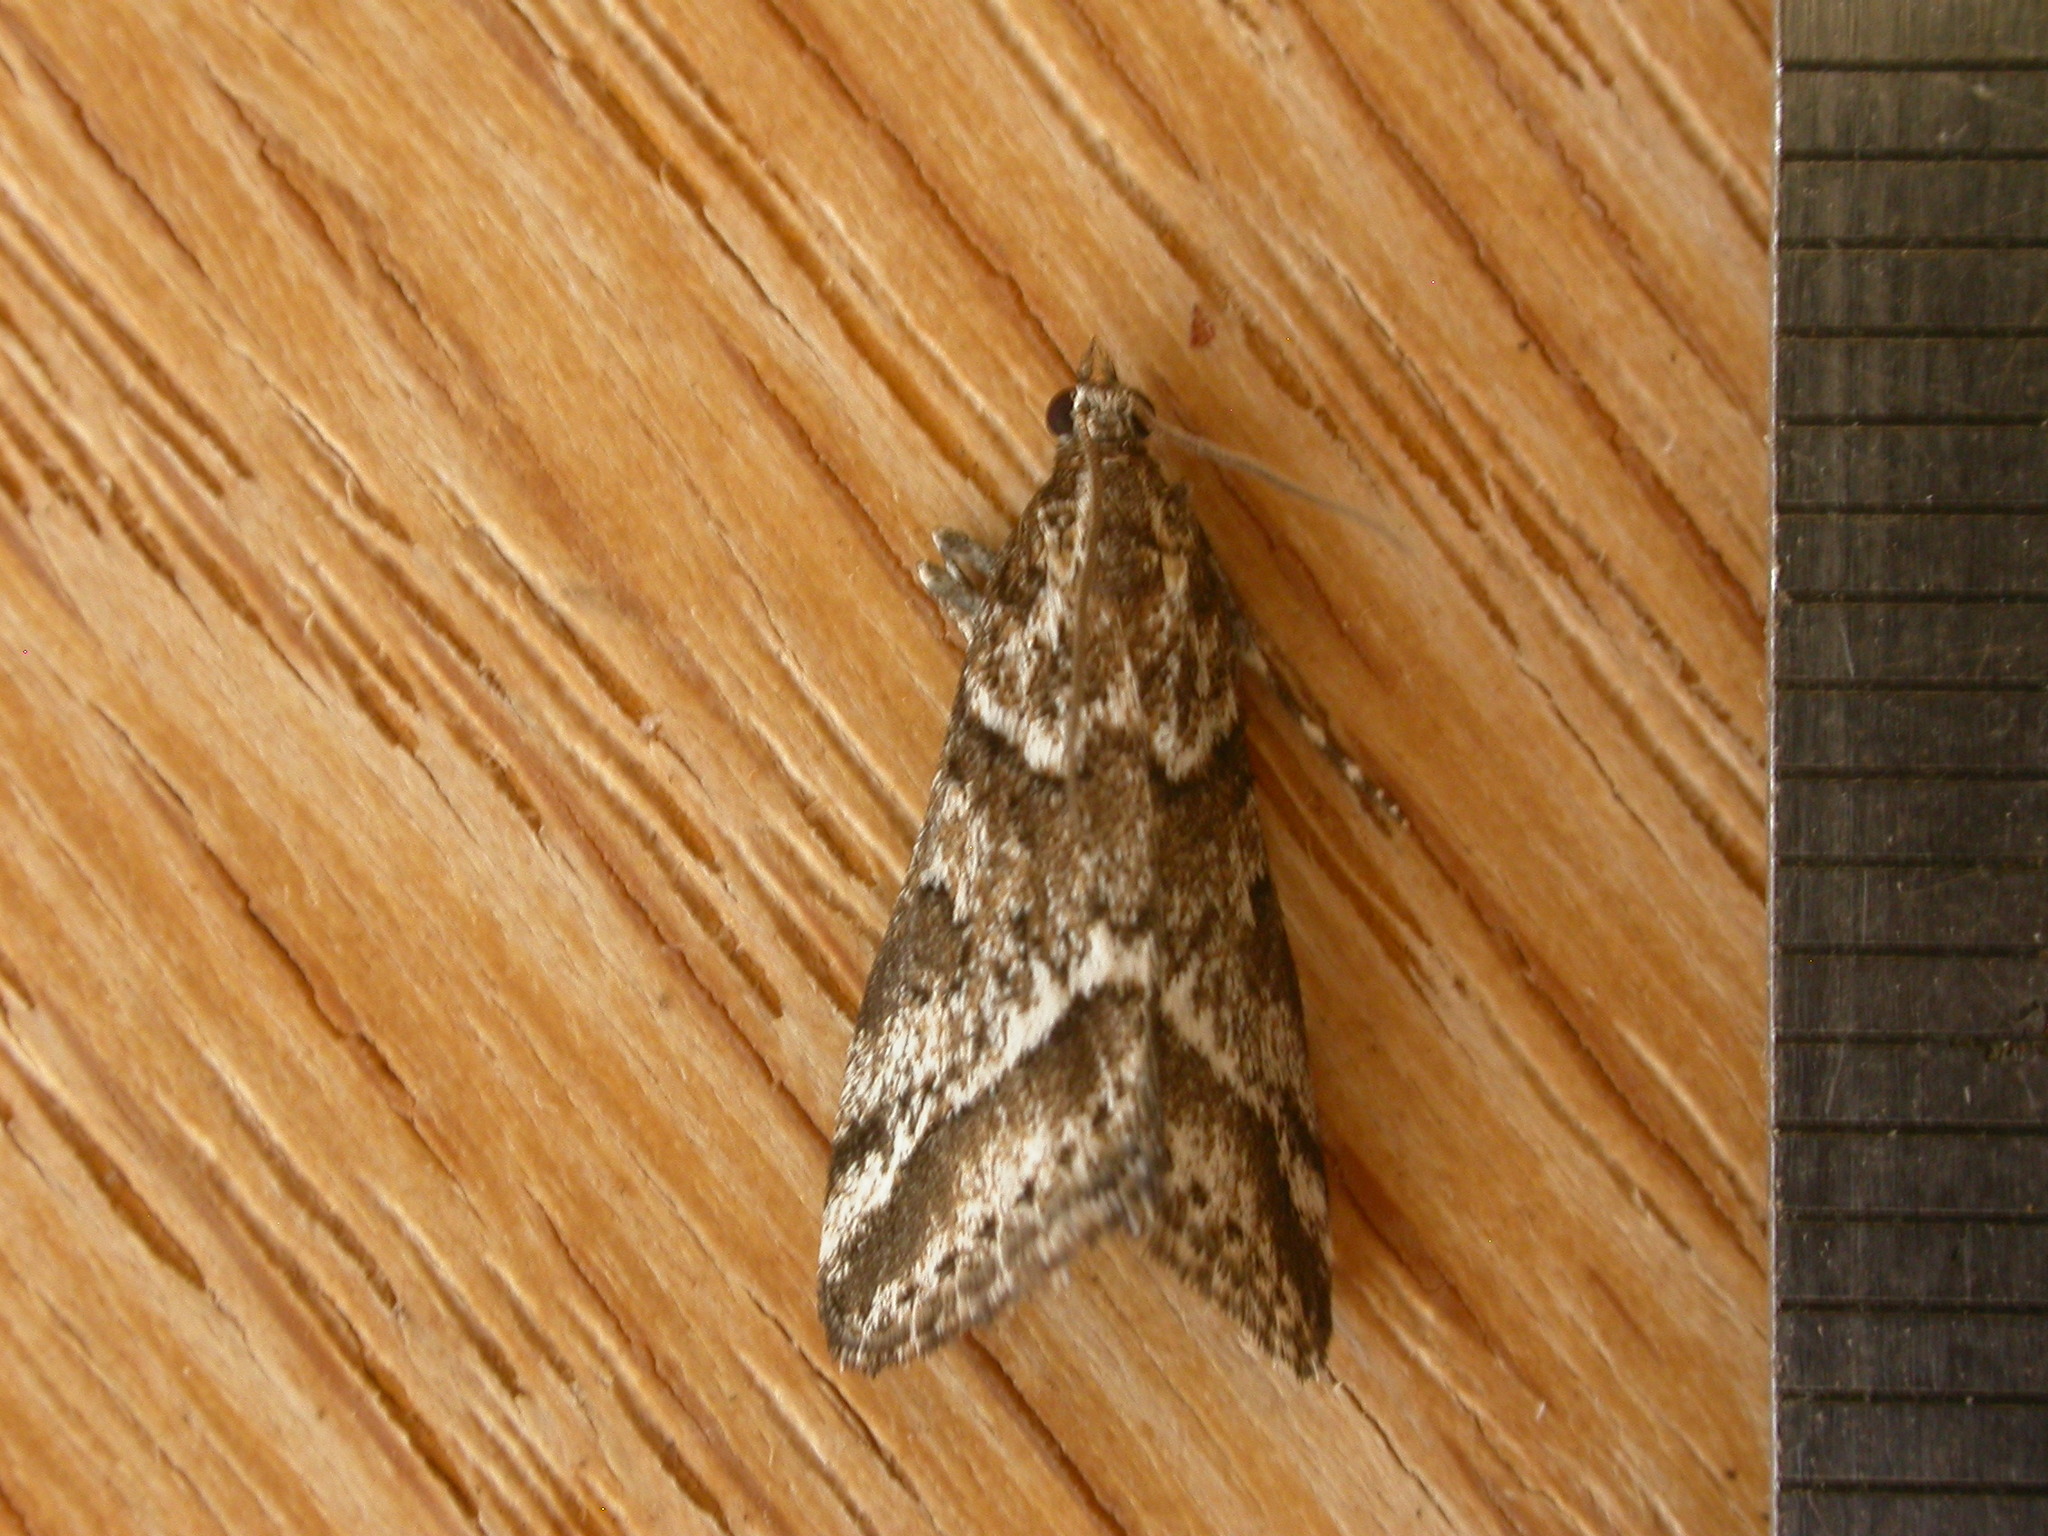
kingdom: Animalia
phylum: Arthropoda
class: Insecta
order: Lepidoptera
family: Crambidae
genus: Phanomorpha
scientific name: Phanomorpha dapsilis
